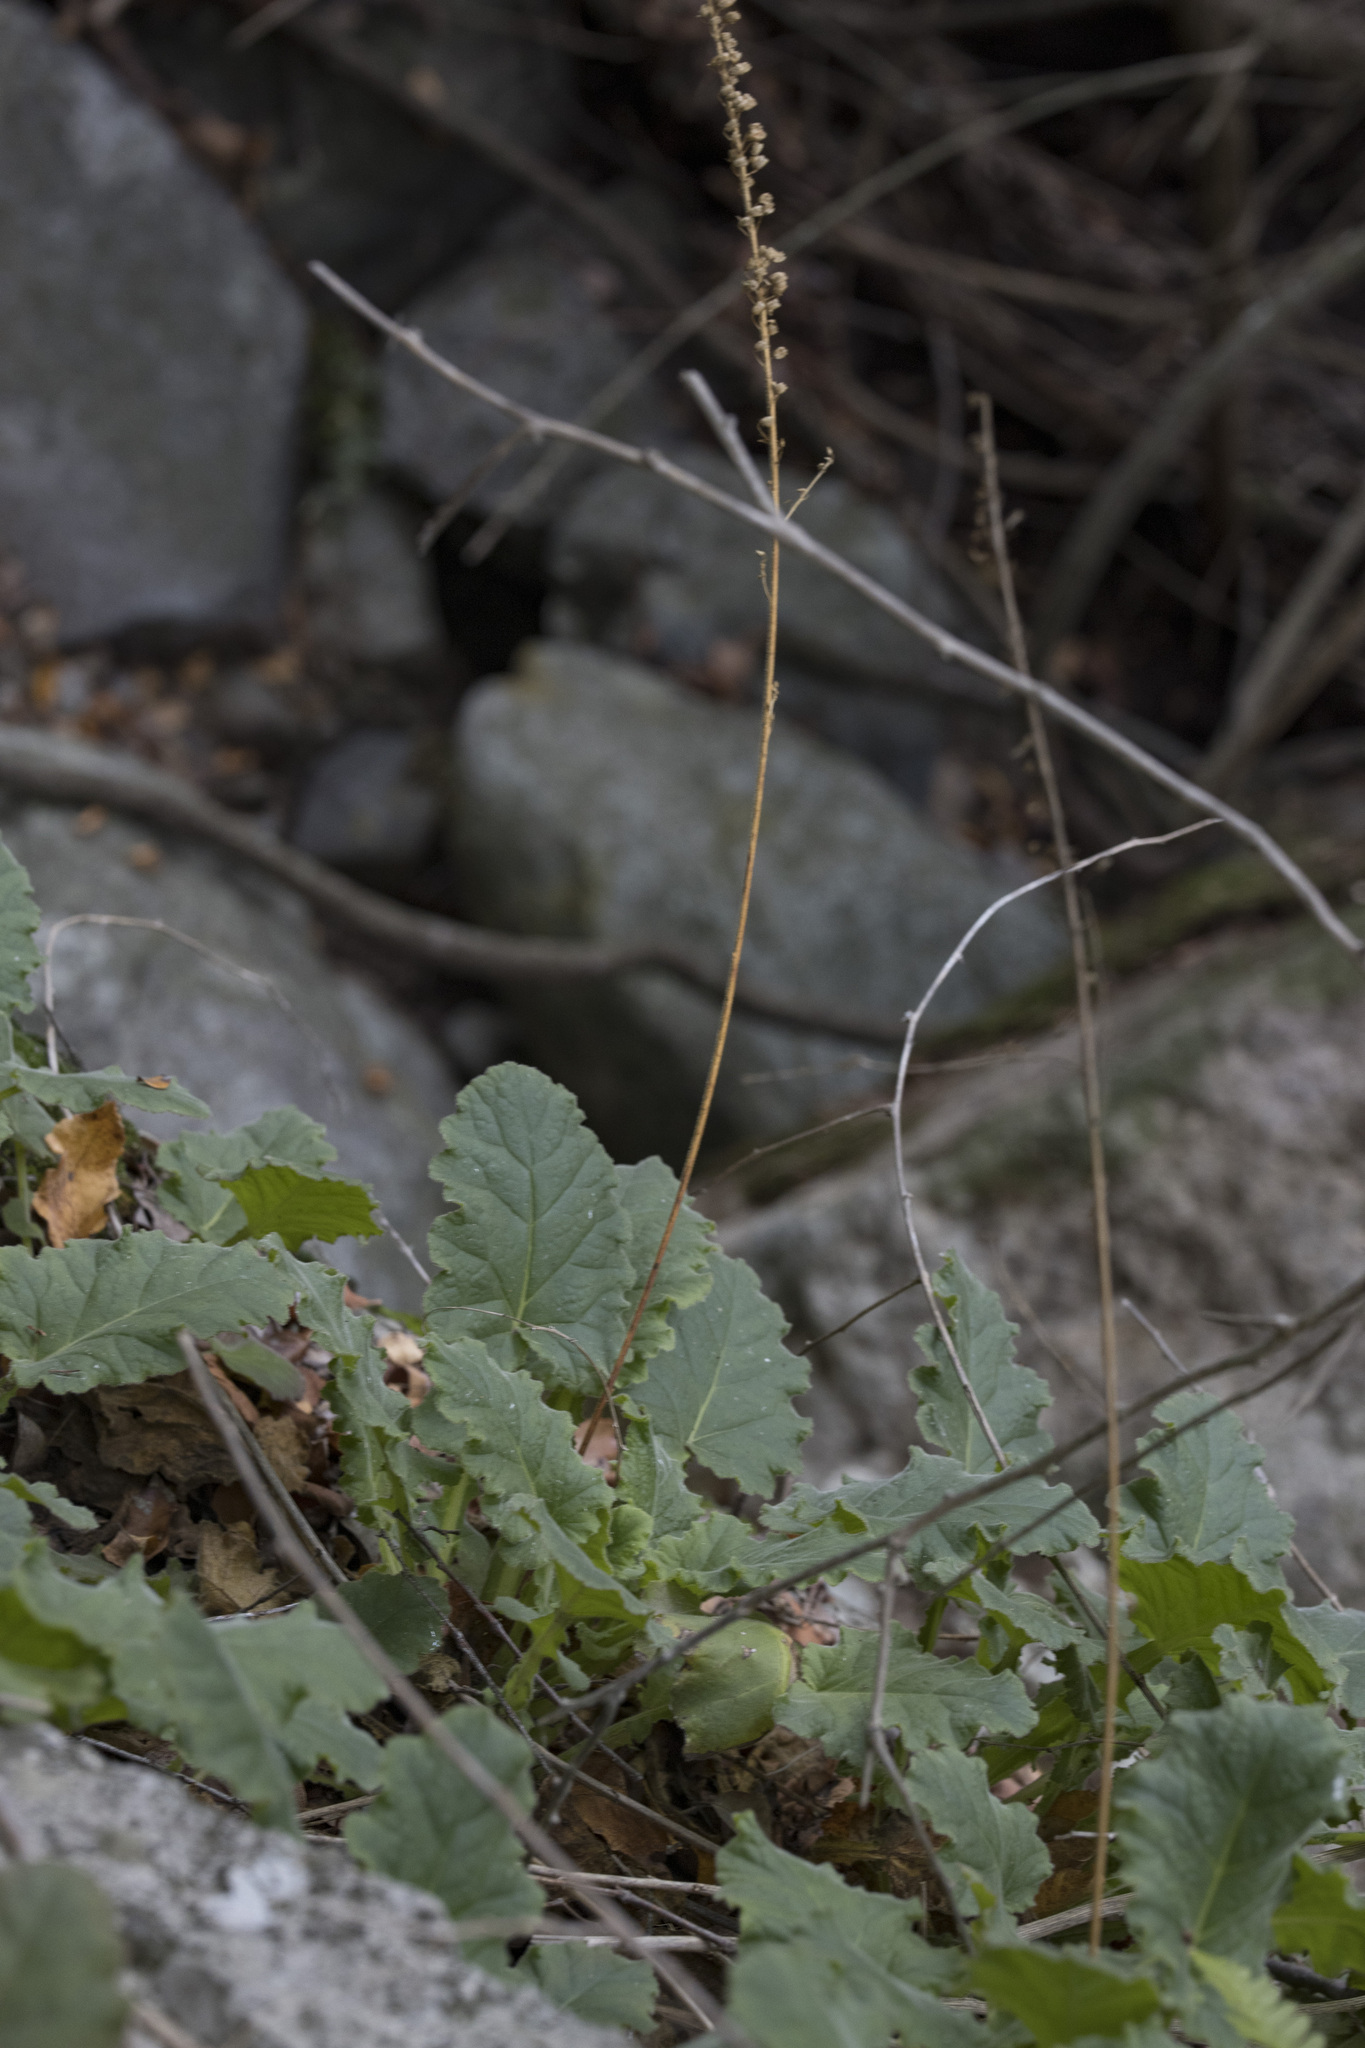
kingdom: Plantae
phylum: Tracheophyta
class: Magnoliopsida
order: Geraniales
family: Francoaceae
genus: Francoa
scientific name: Francoa appendiculata
